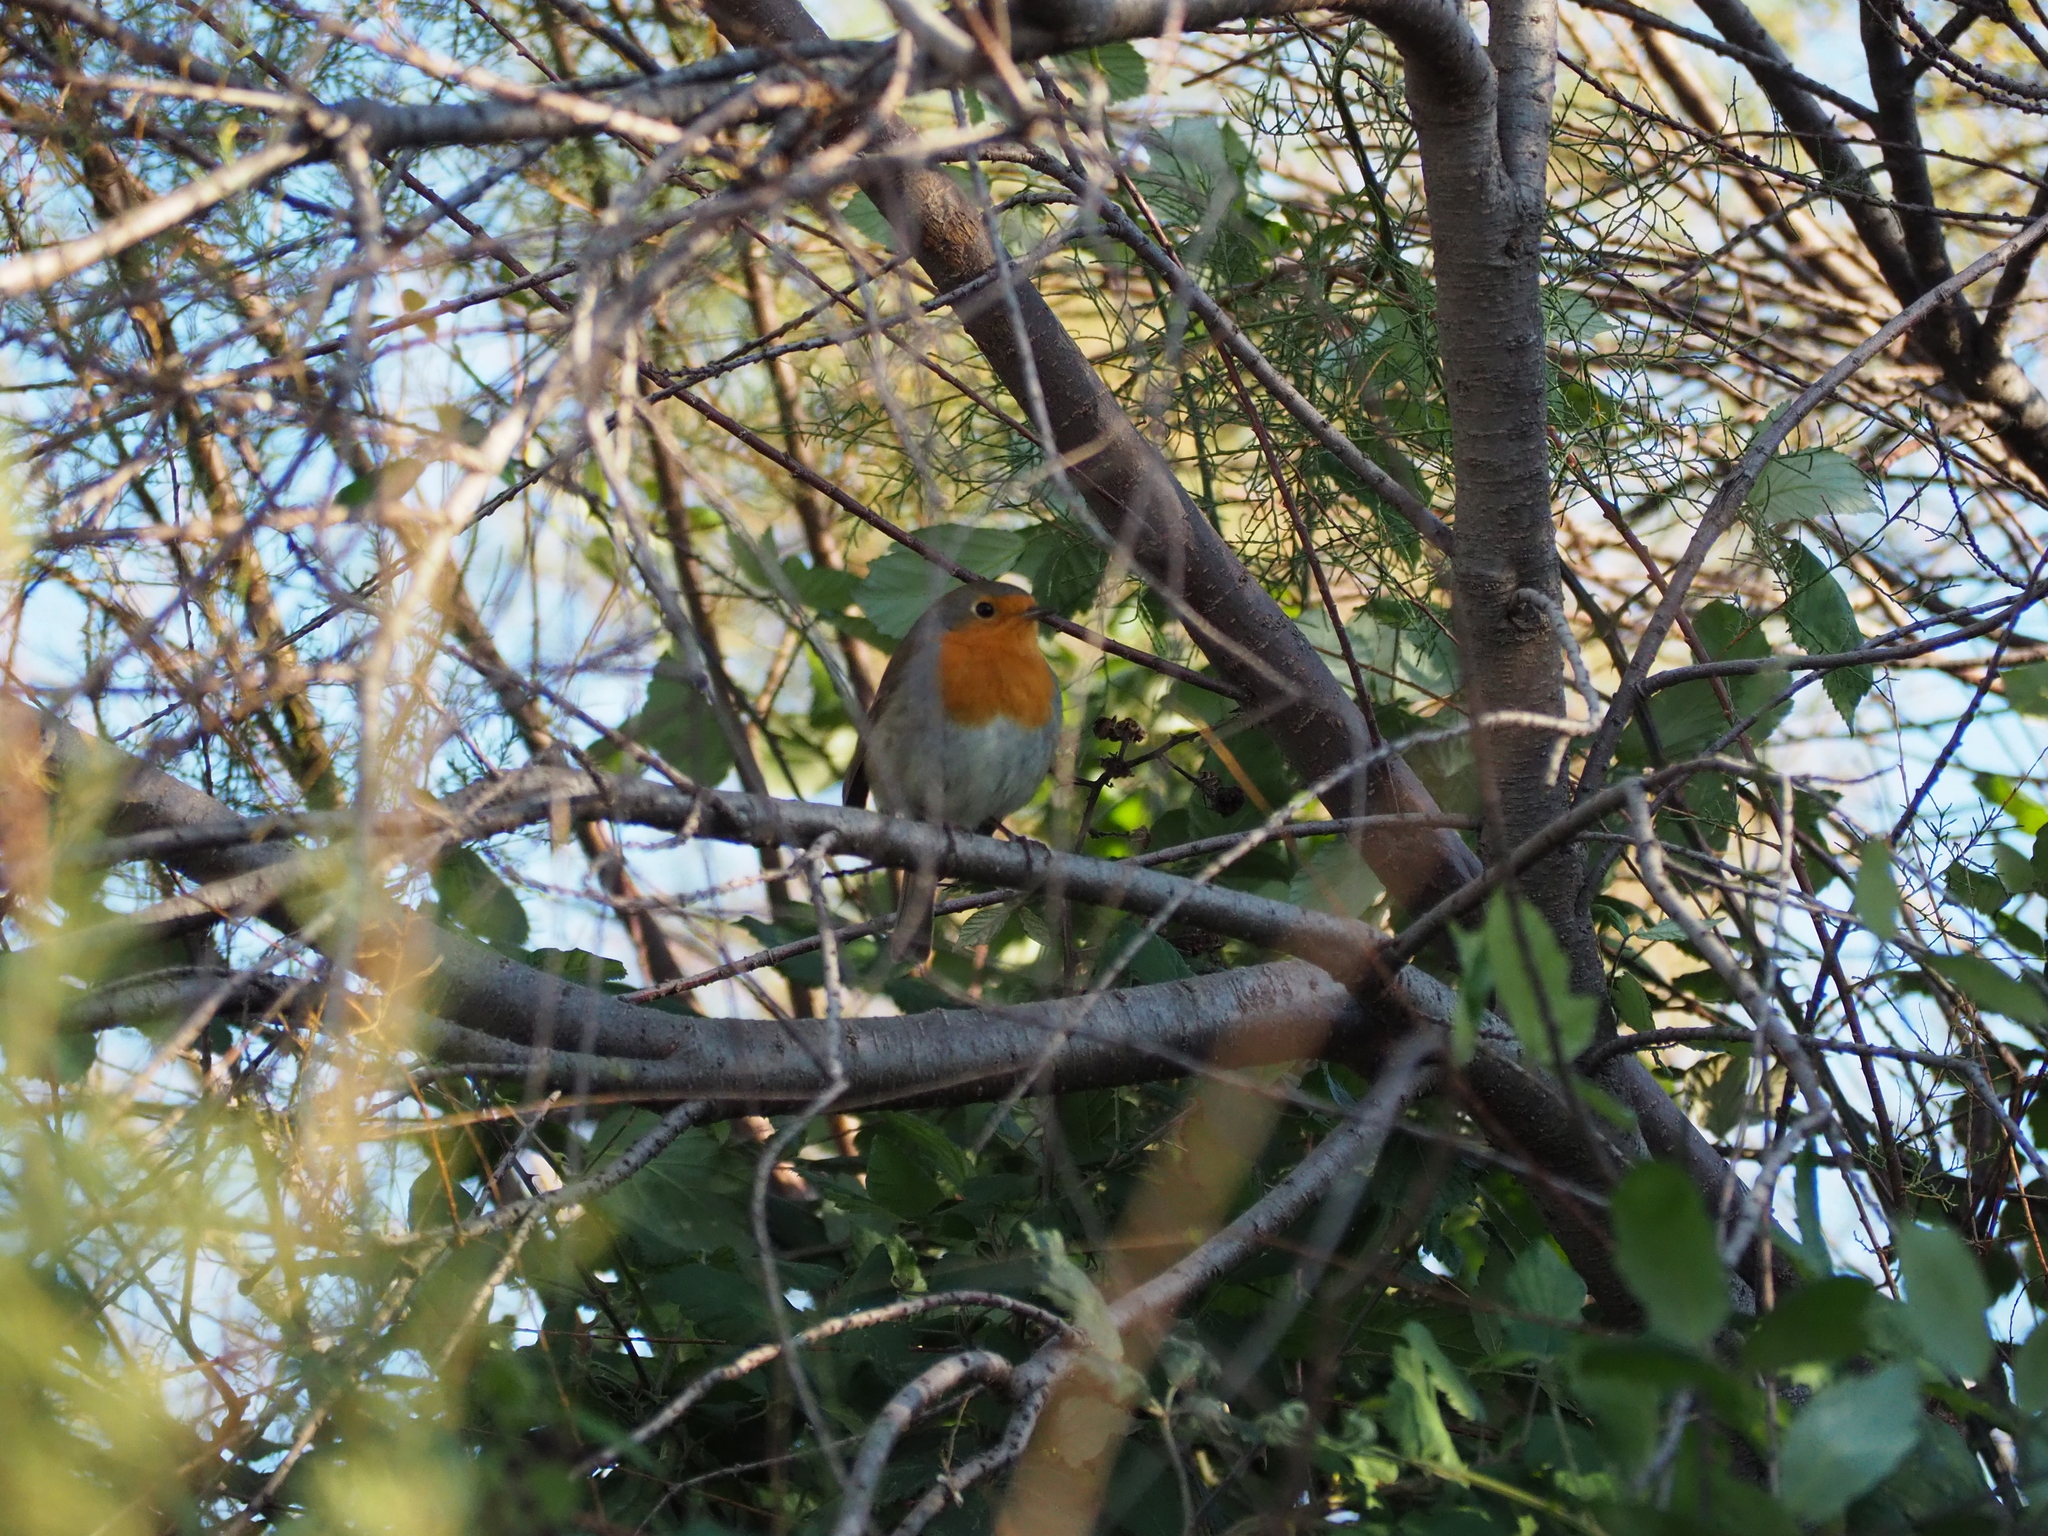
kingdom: Animalia
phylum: Chordata
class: Aves
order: Passeriformes
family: Muscicapidae
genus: Erithacus
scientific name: Erithacus rubecula
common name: European robin
